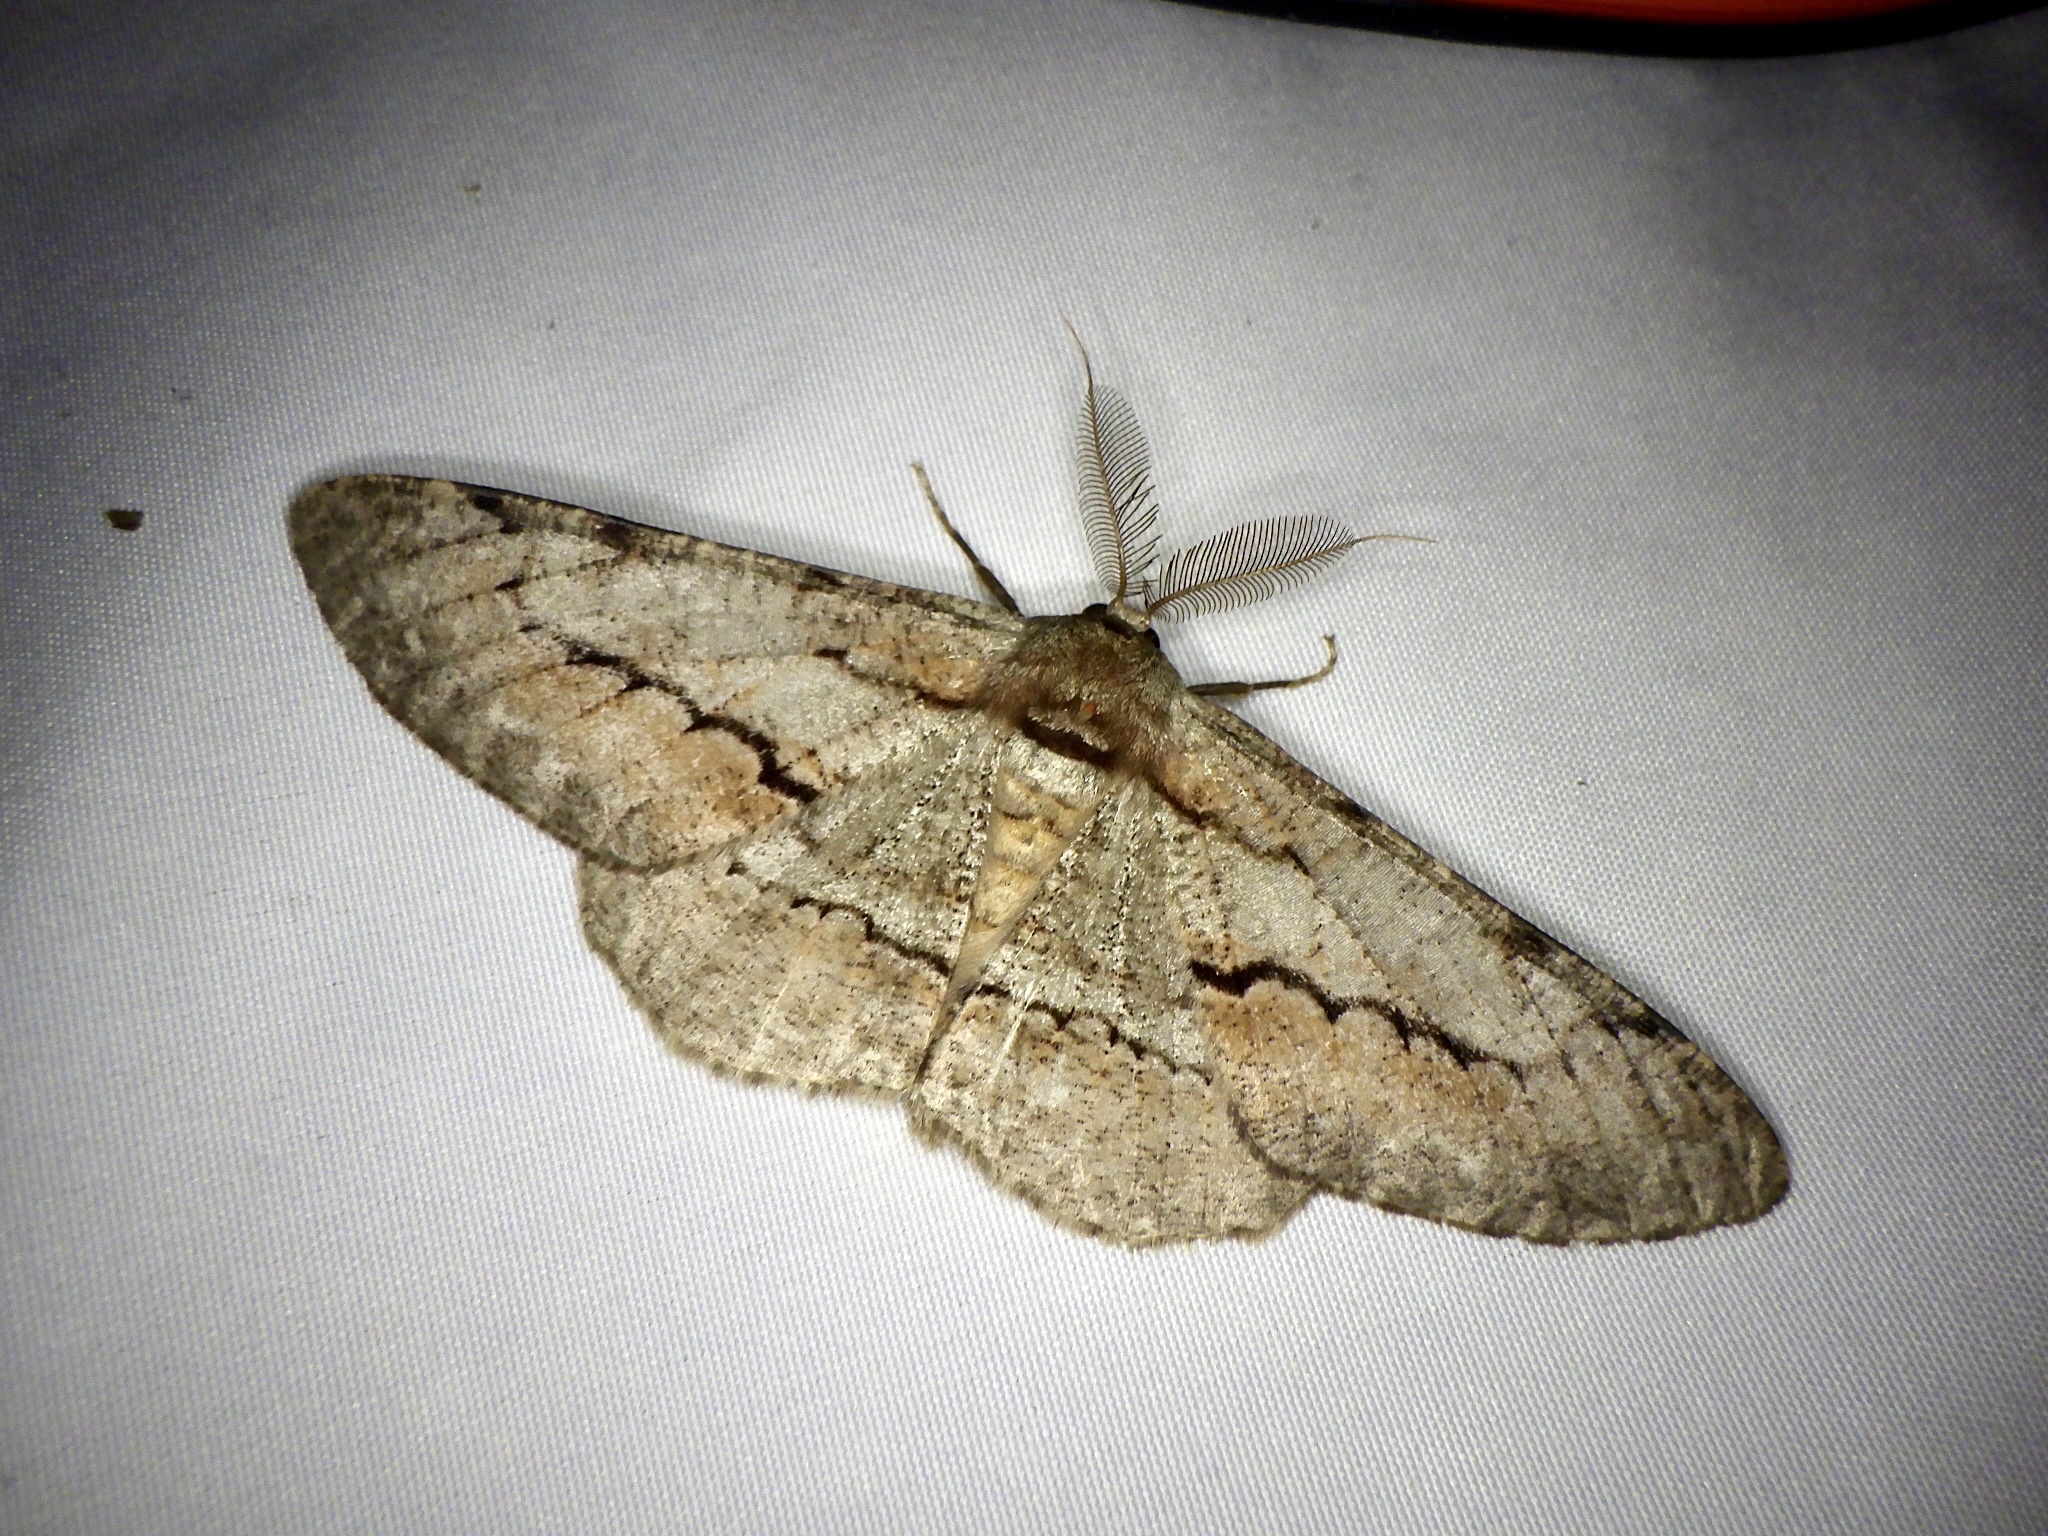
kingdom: Animalia
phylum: Arthropoda
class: Insecta
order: Lepidoptera
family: Geometridae
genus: Phthonosema
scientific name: Phthonosema tendinosaria
